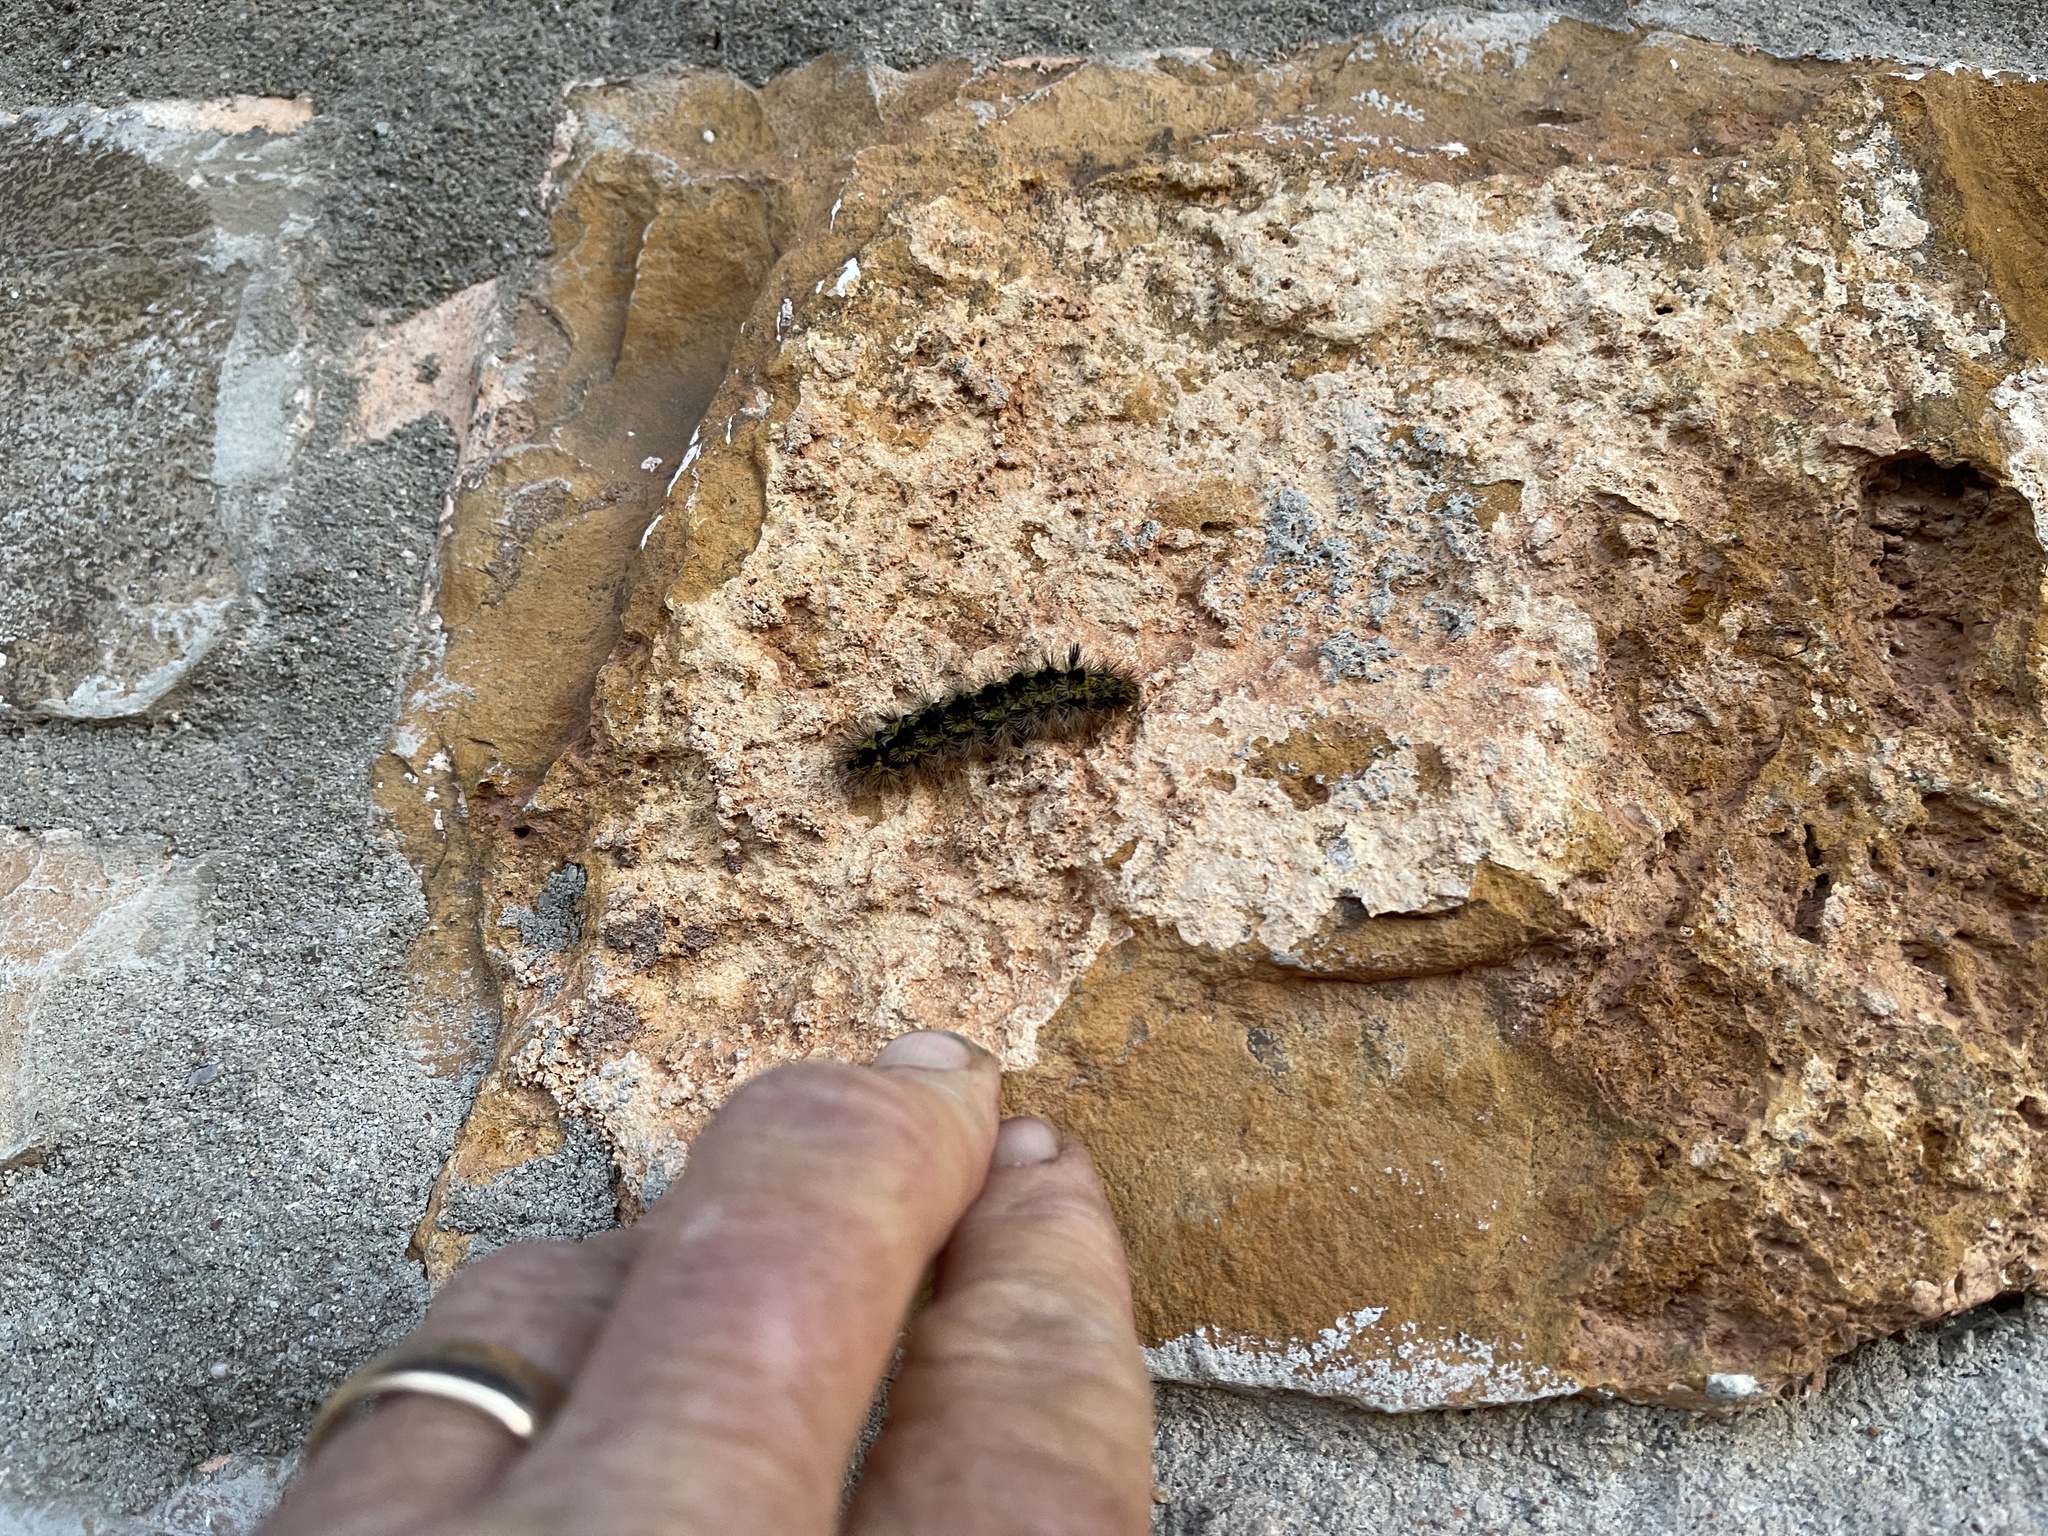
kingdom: Animalia
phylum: Arthropoda
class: Insecta
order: Lepidoptera
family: Erebidae
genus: Lophocampa
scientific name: Lophocampa argentata
